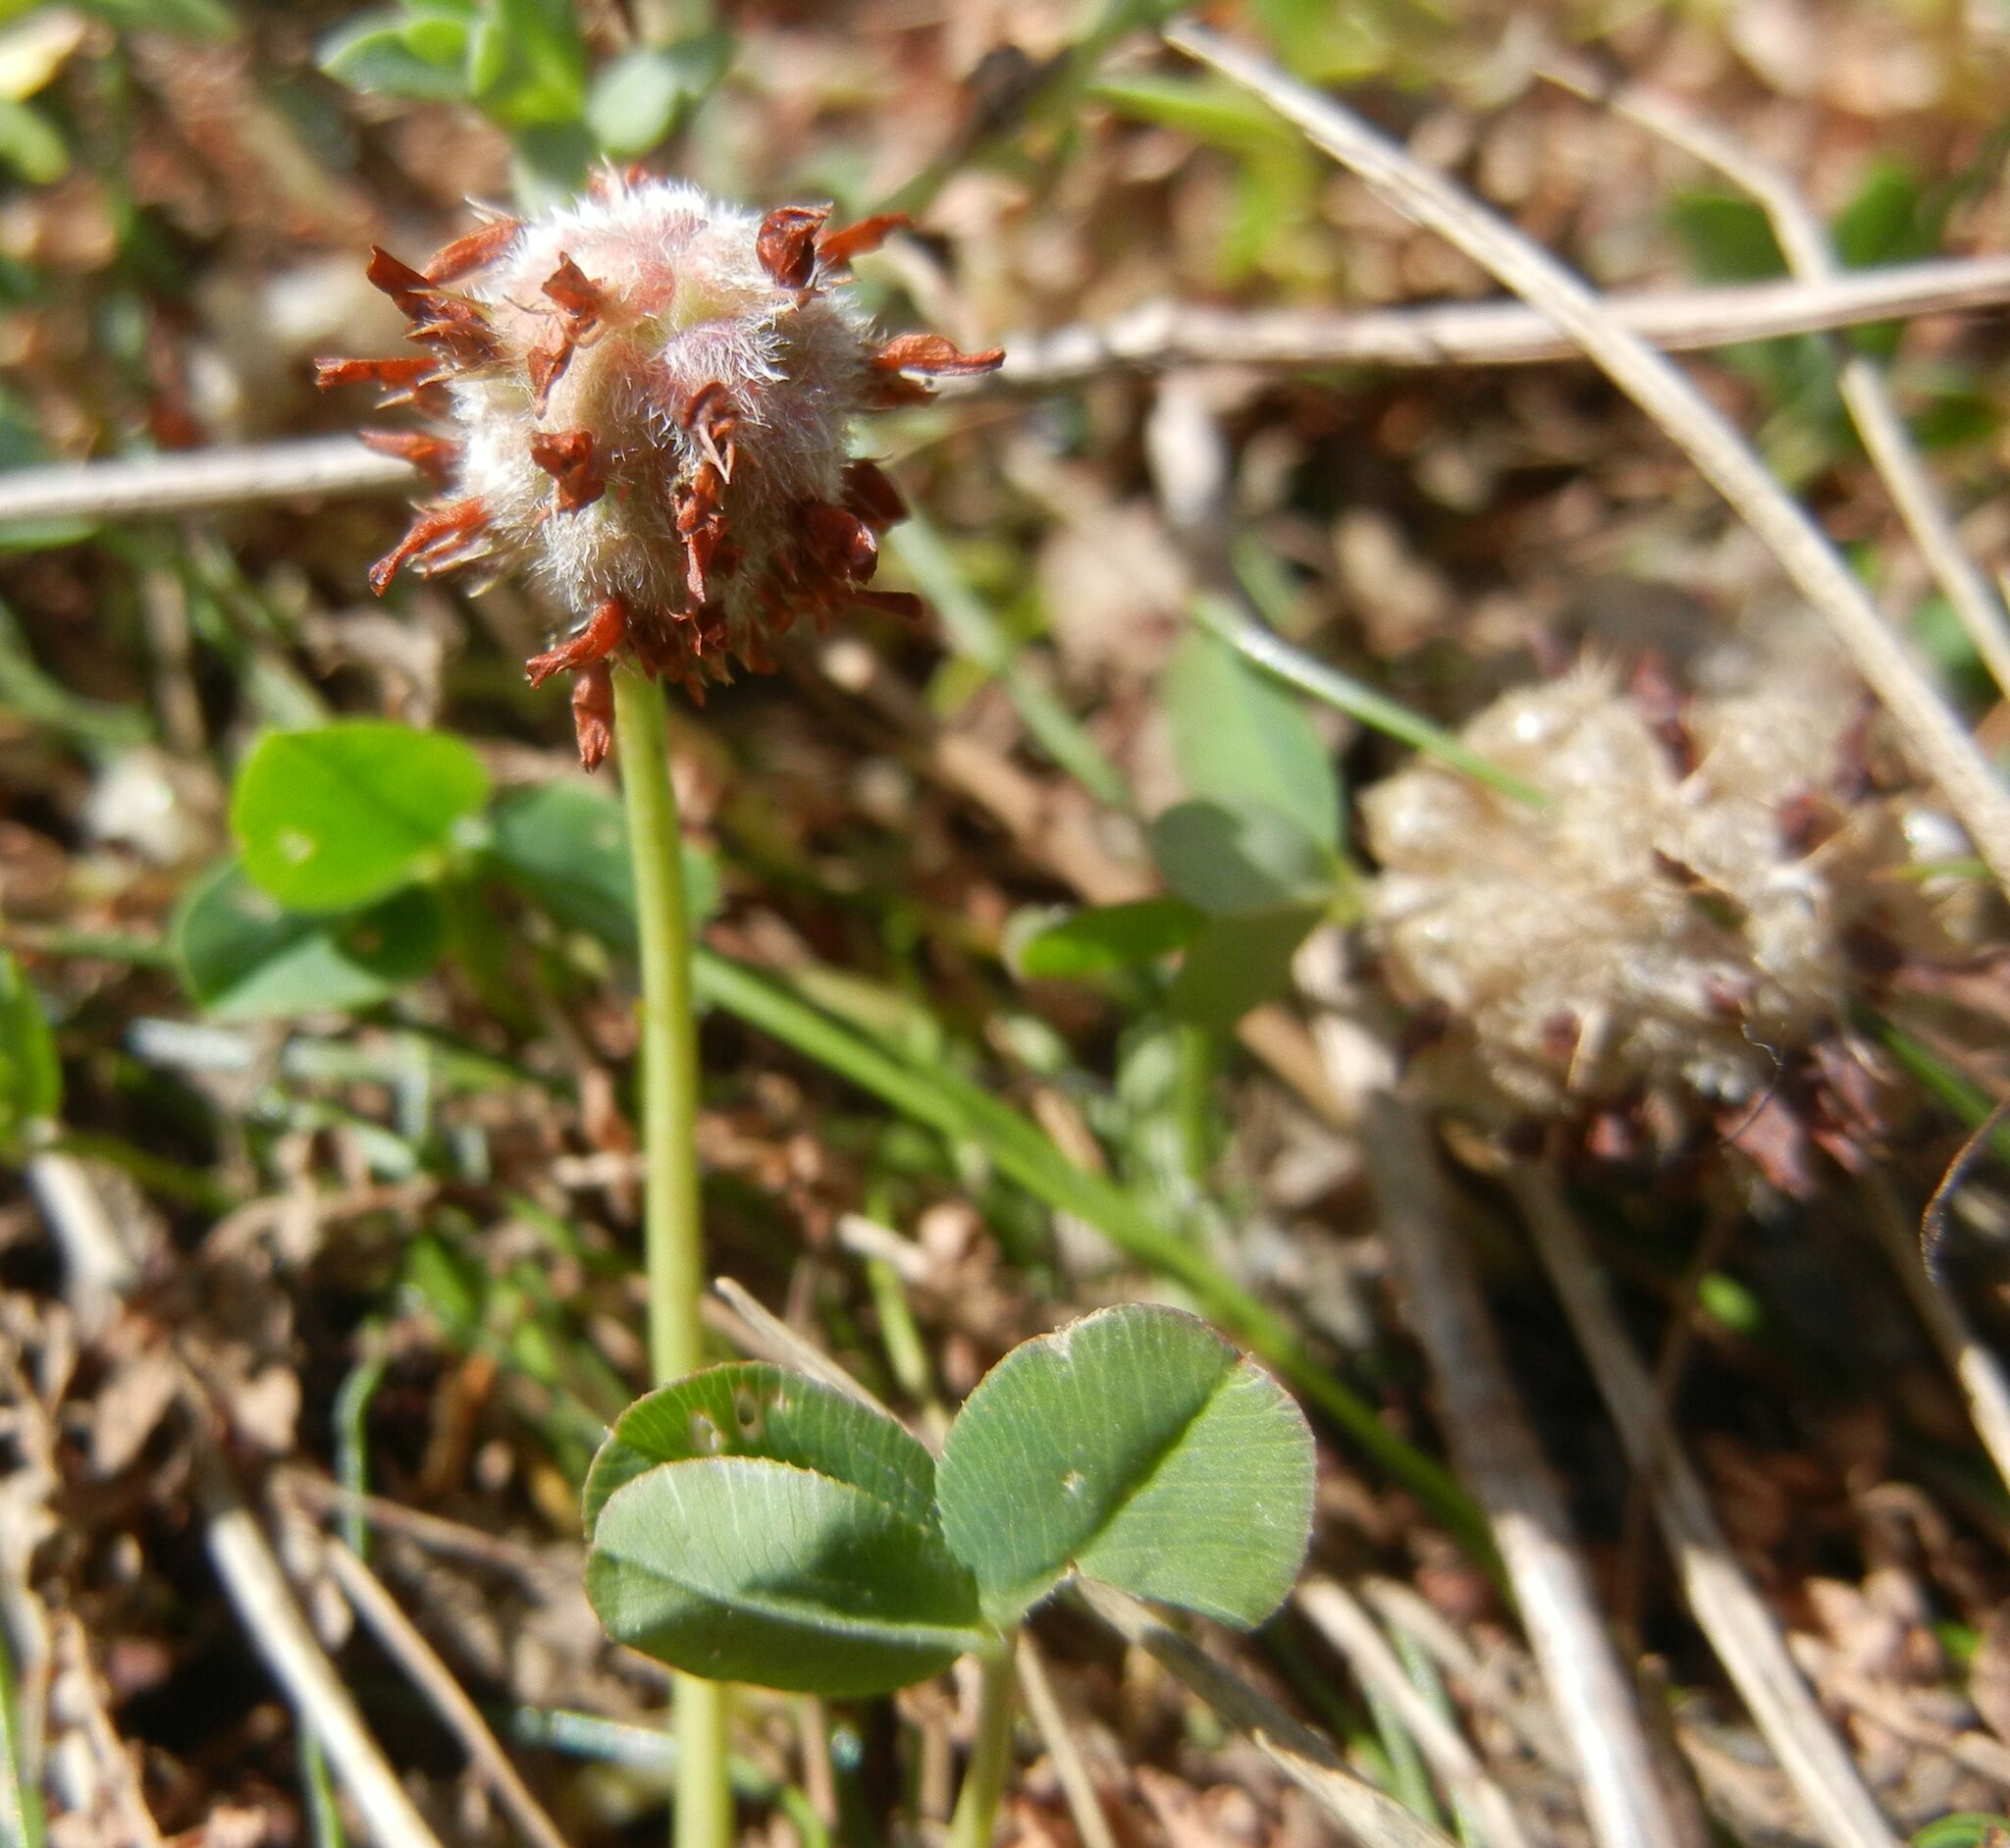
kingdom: Plantae
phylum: Tracheophyta
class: Magnoliopsida
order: Fabales
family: Fabaceae
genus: Trifolium
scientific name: Trifolium fragiferum
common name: Strawberry clover
